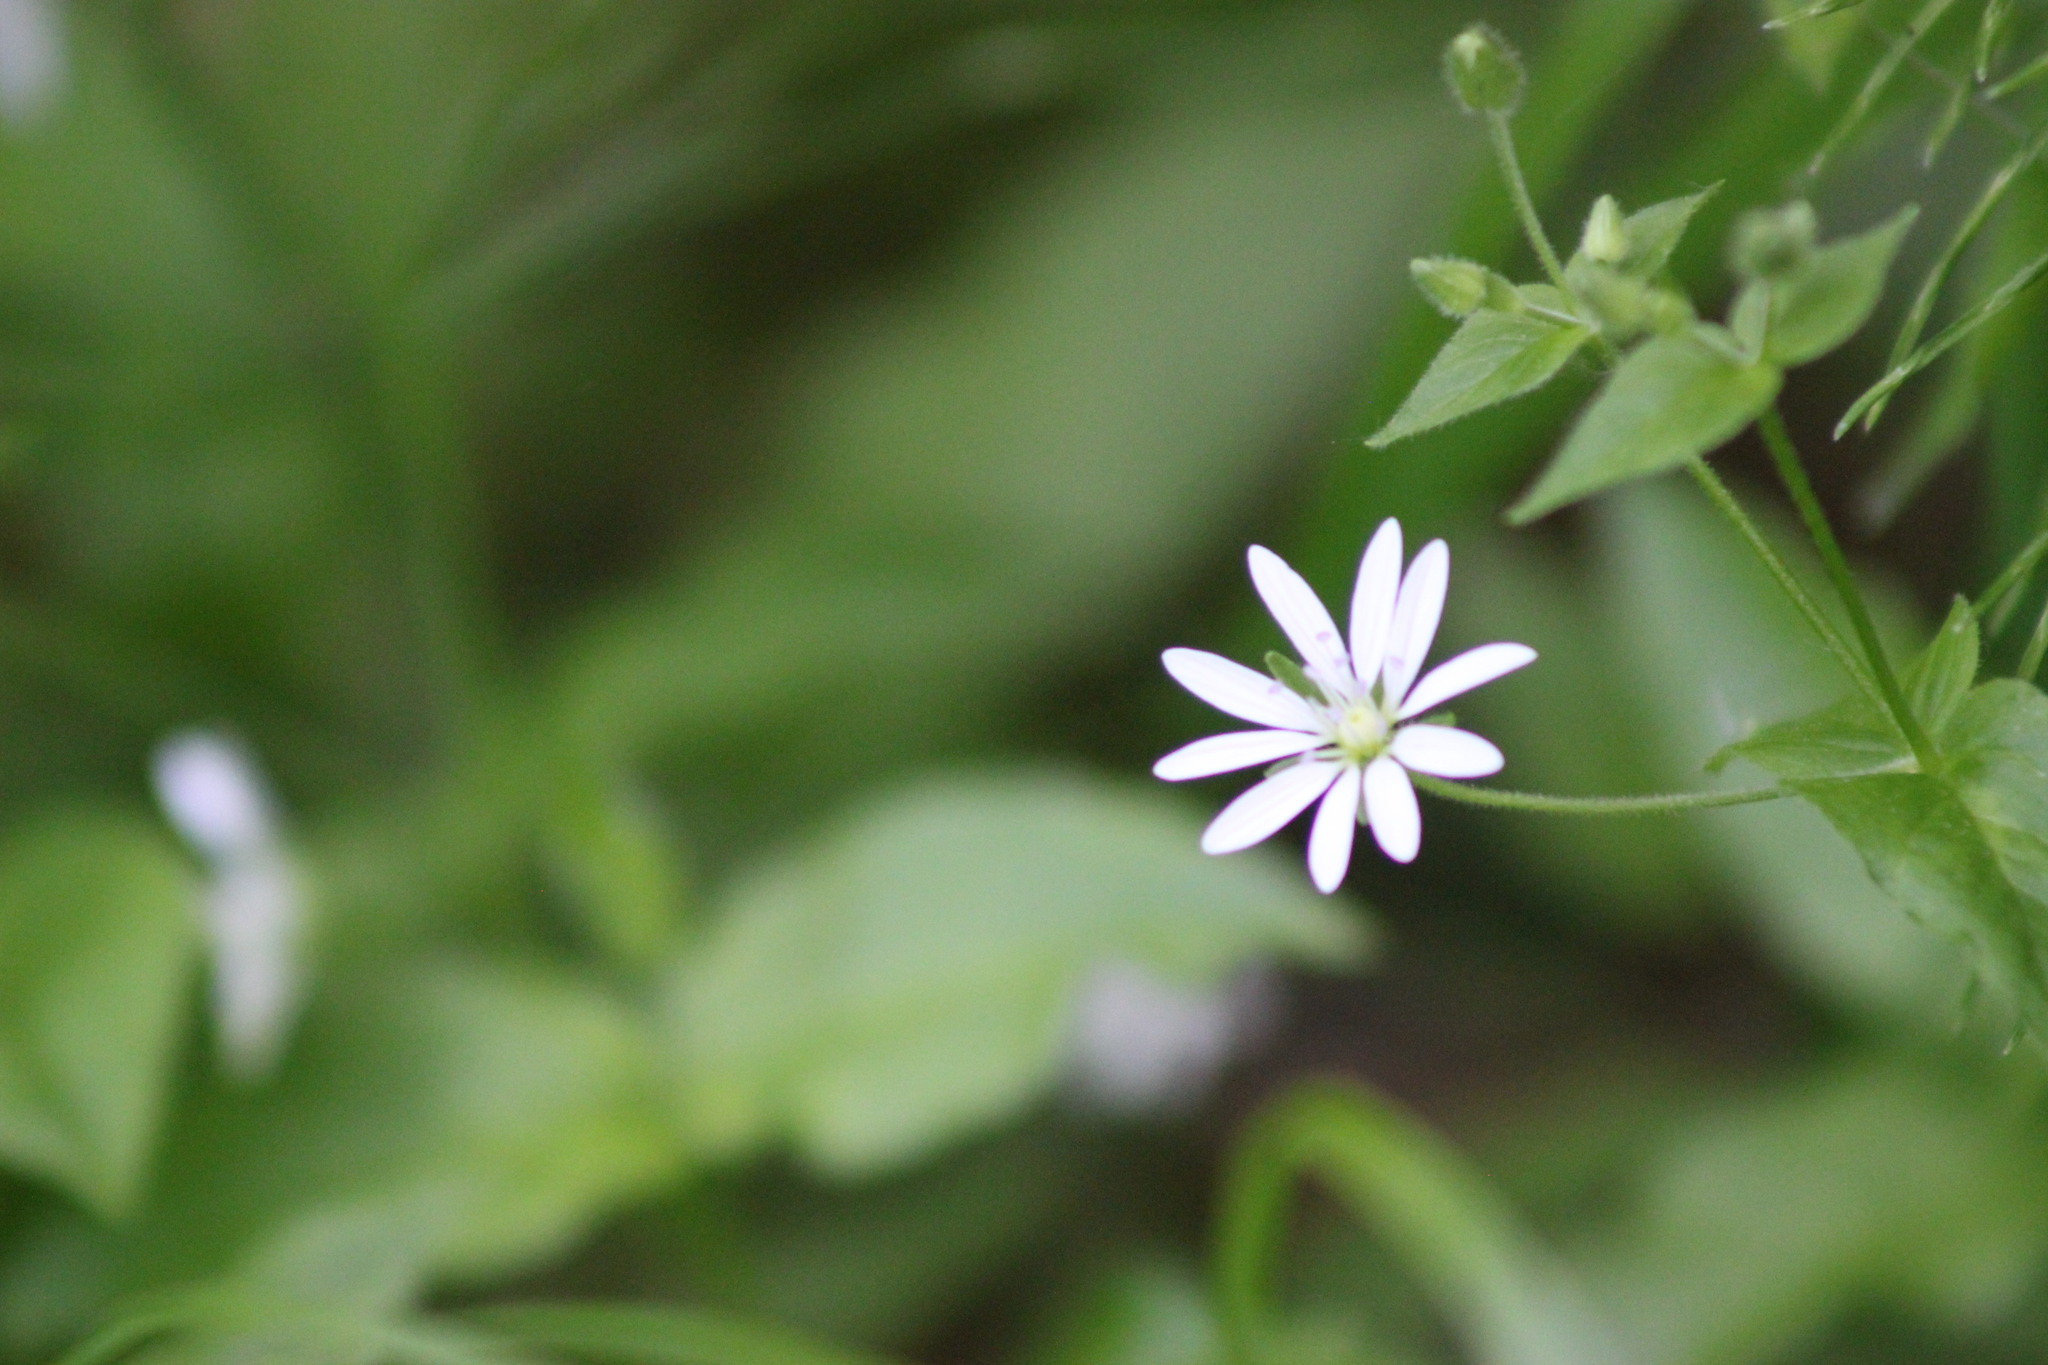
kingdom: Plantae
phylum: Tracheophyta
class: Magnoliopsida
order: Caryophyllales
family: Caryophyllaceae
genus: Stellaria
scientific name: Stellaria bungeana
